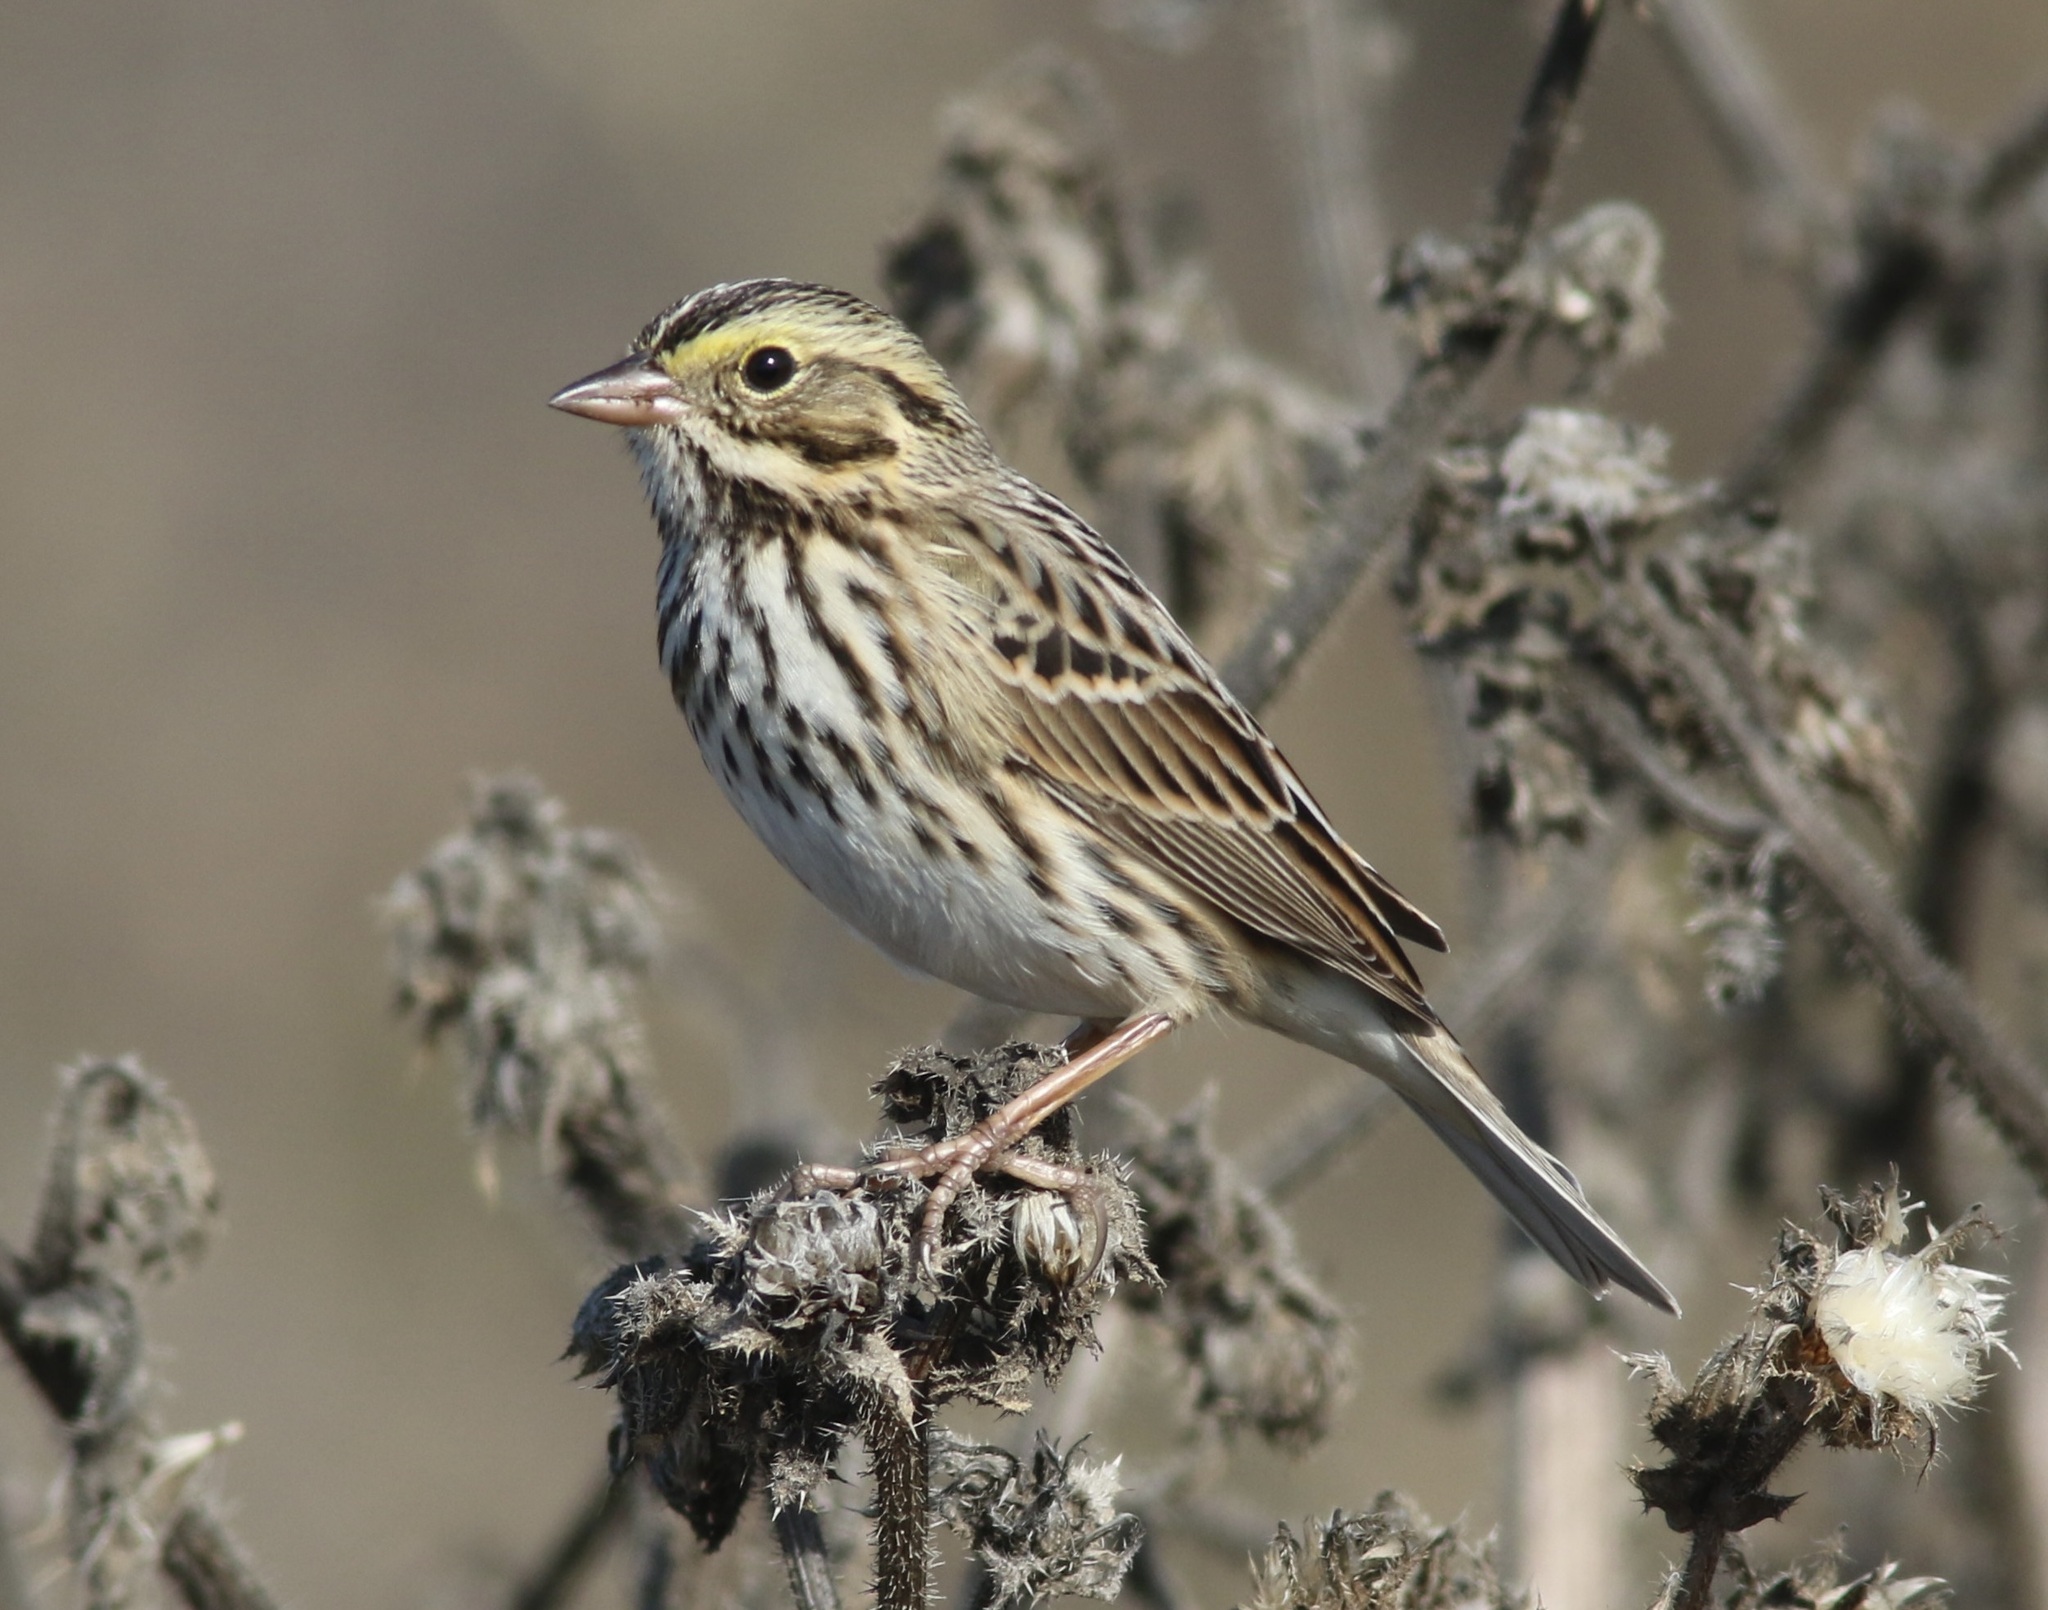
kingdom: Animalia
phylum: Chordata
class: Aves
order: Passeriformes
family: Passerellidae
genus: Passerculus
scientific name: Passerculus sandwichensis
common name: Savannah sparrow
